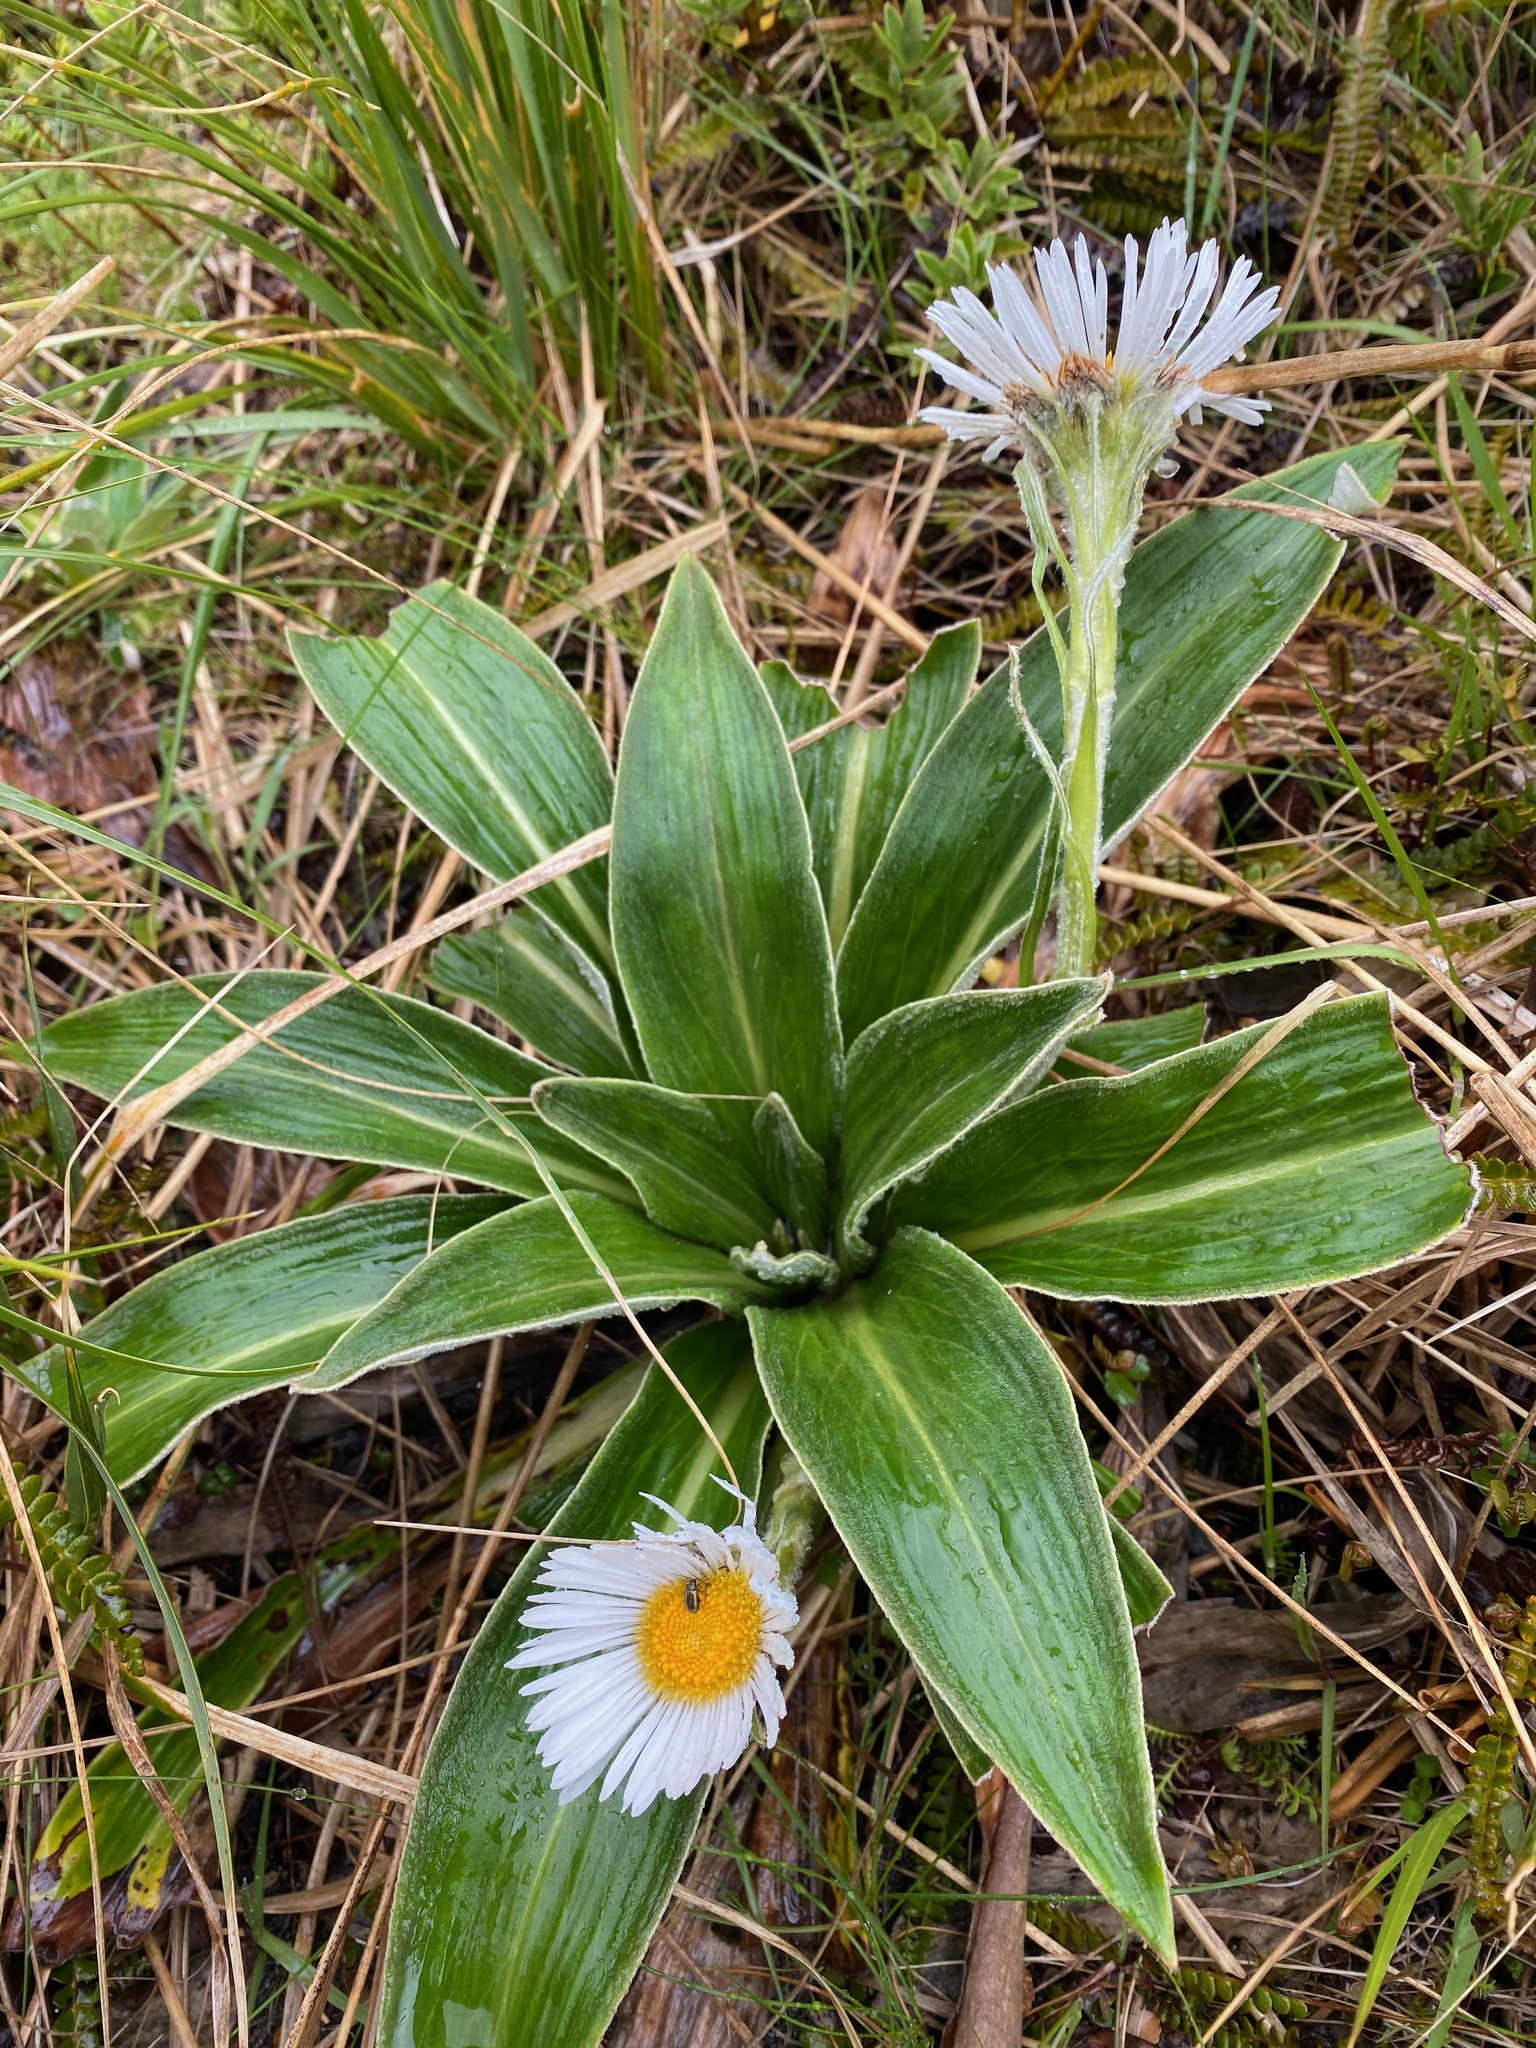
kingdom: Plantae
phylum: Tracheophyta
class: Magnoliopsida
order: Asterales
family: Asteraceae
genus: Celmisia
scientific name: Celmisia verbascifolia
